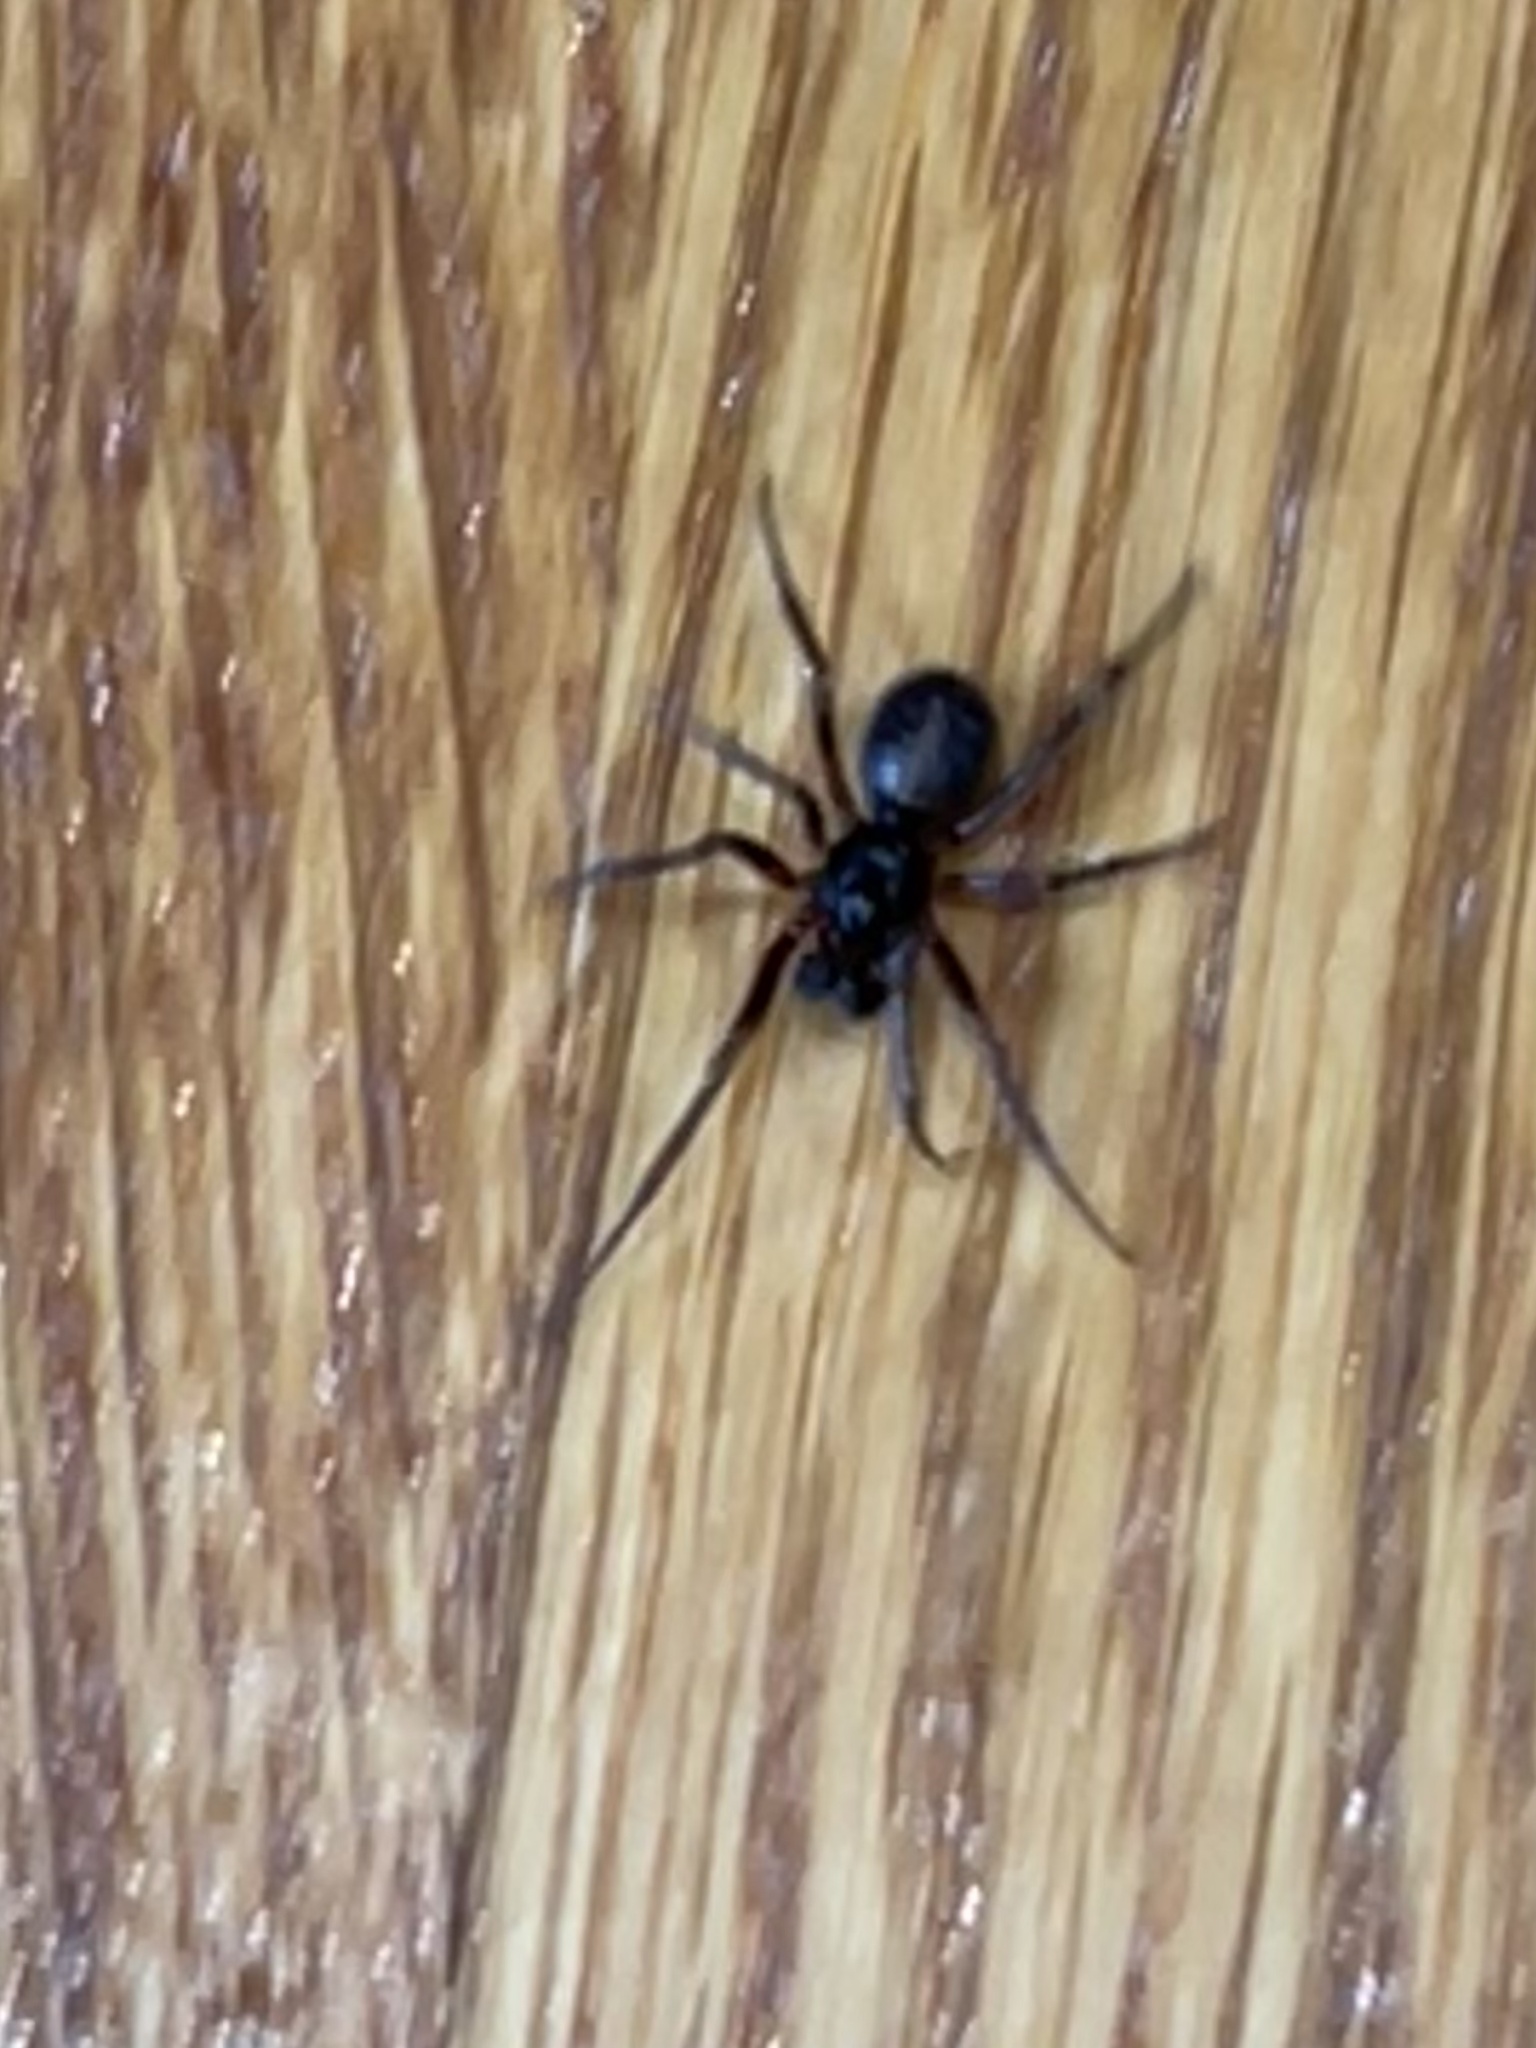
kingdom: Animalia
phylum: Arthropoda
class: Arachnida
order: Araneae
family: Theridiidae
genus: Steatoda
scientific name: Steatoda borealis
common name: Boreal combfoot
